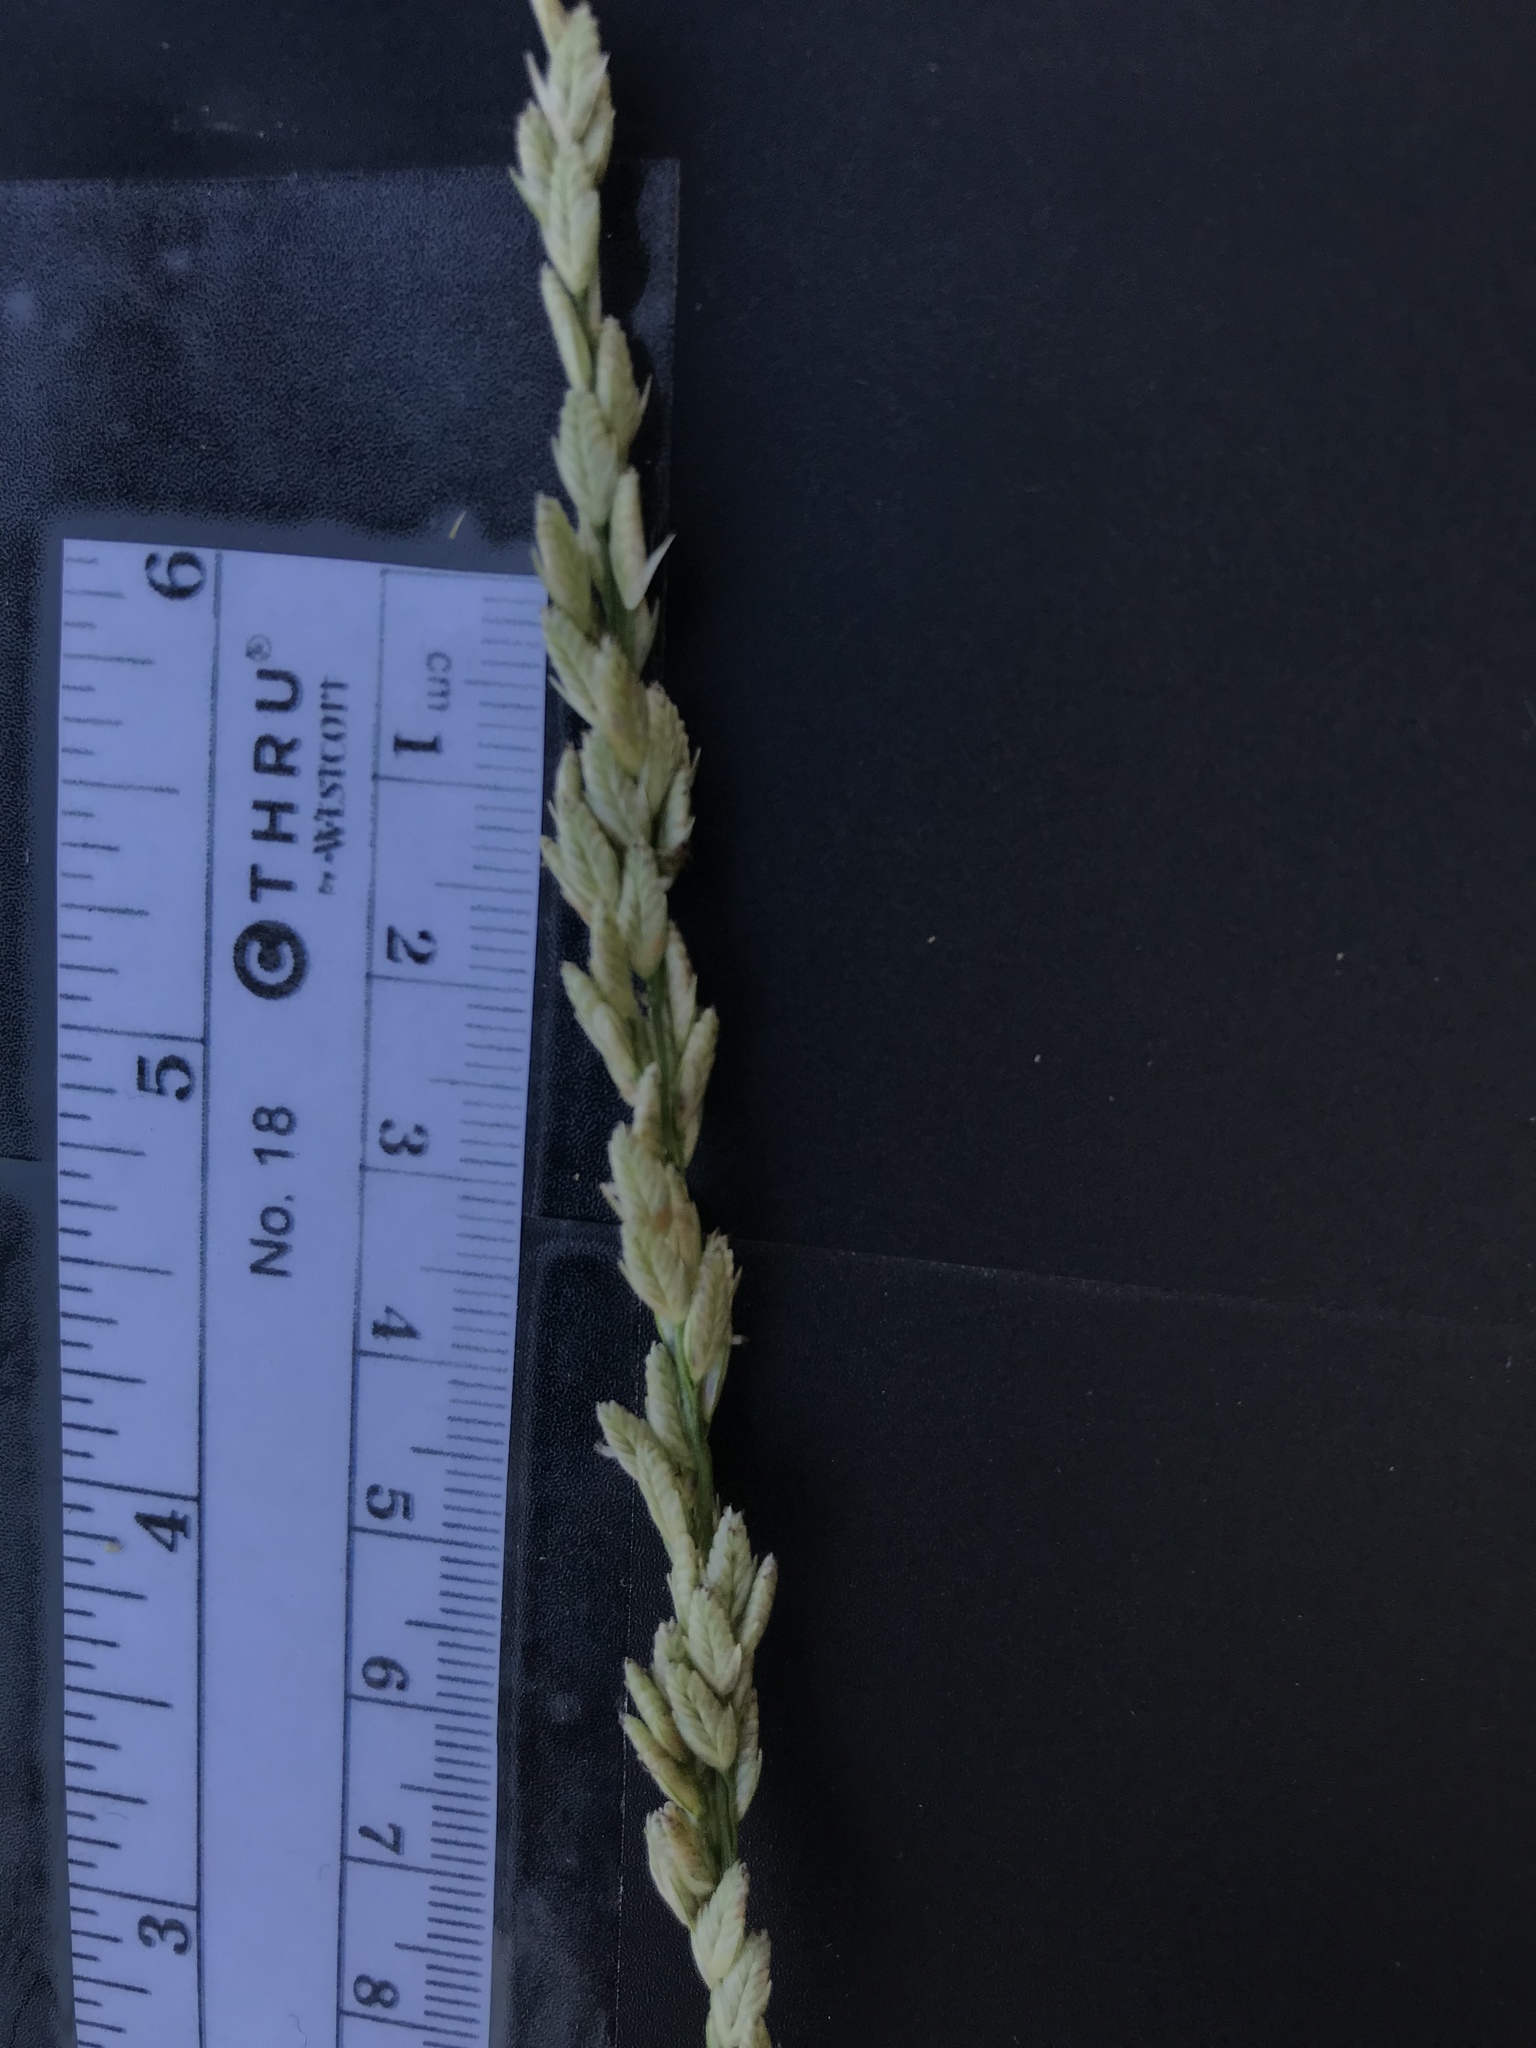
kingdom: Plantae
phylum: Tracheophyta
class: Liliopsida
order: Poales
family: Poaceae
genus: Tridens
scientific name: Tridens albescens
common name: White tridens
